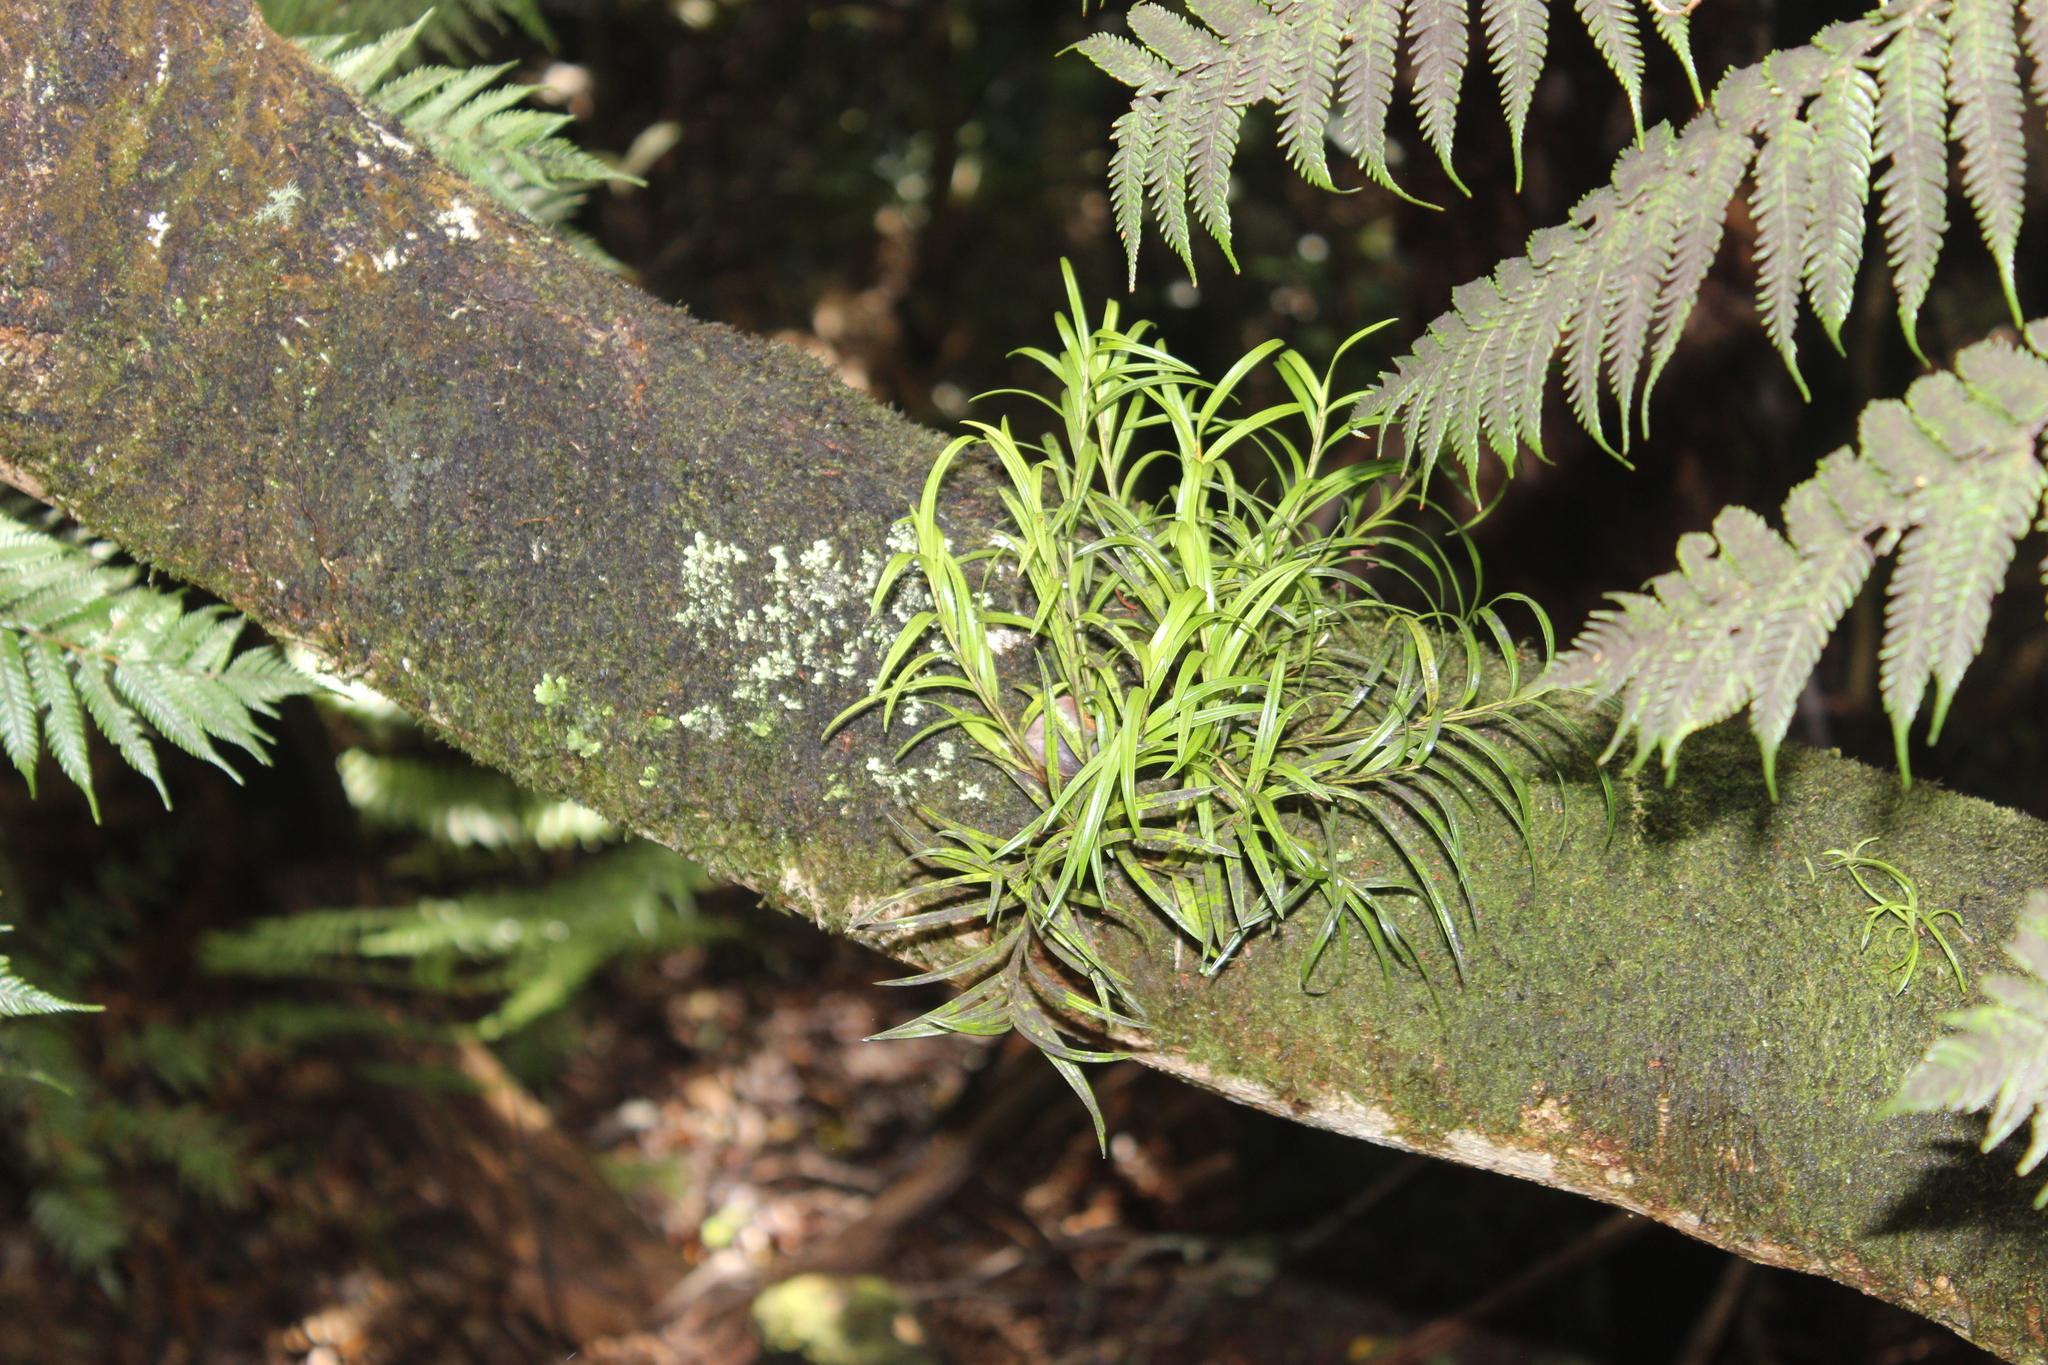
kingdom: Plantae
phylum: Tracheophyta
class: Liliopsida
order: Asparagales
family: Orchidaceae
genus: Earina
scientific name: Earina autumnalis
